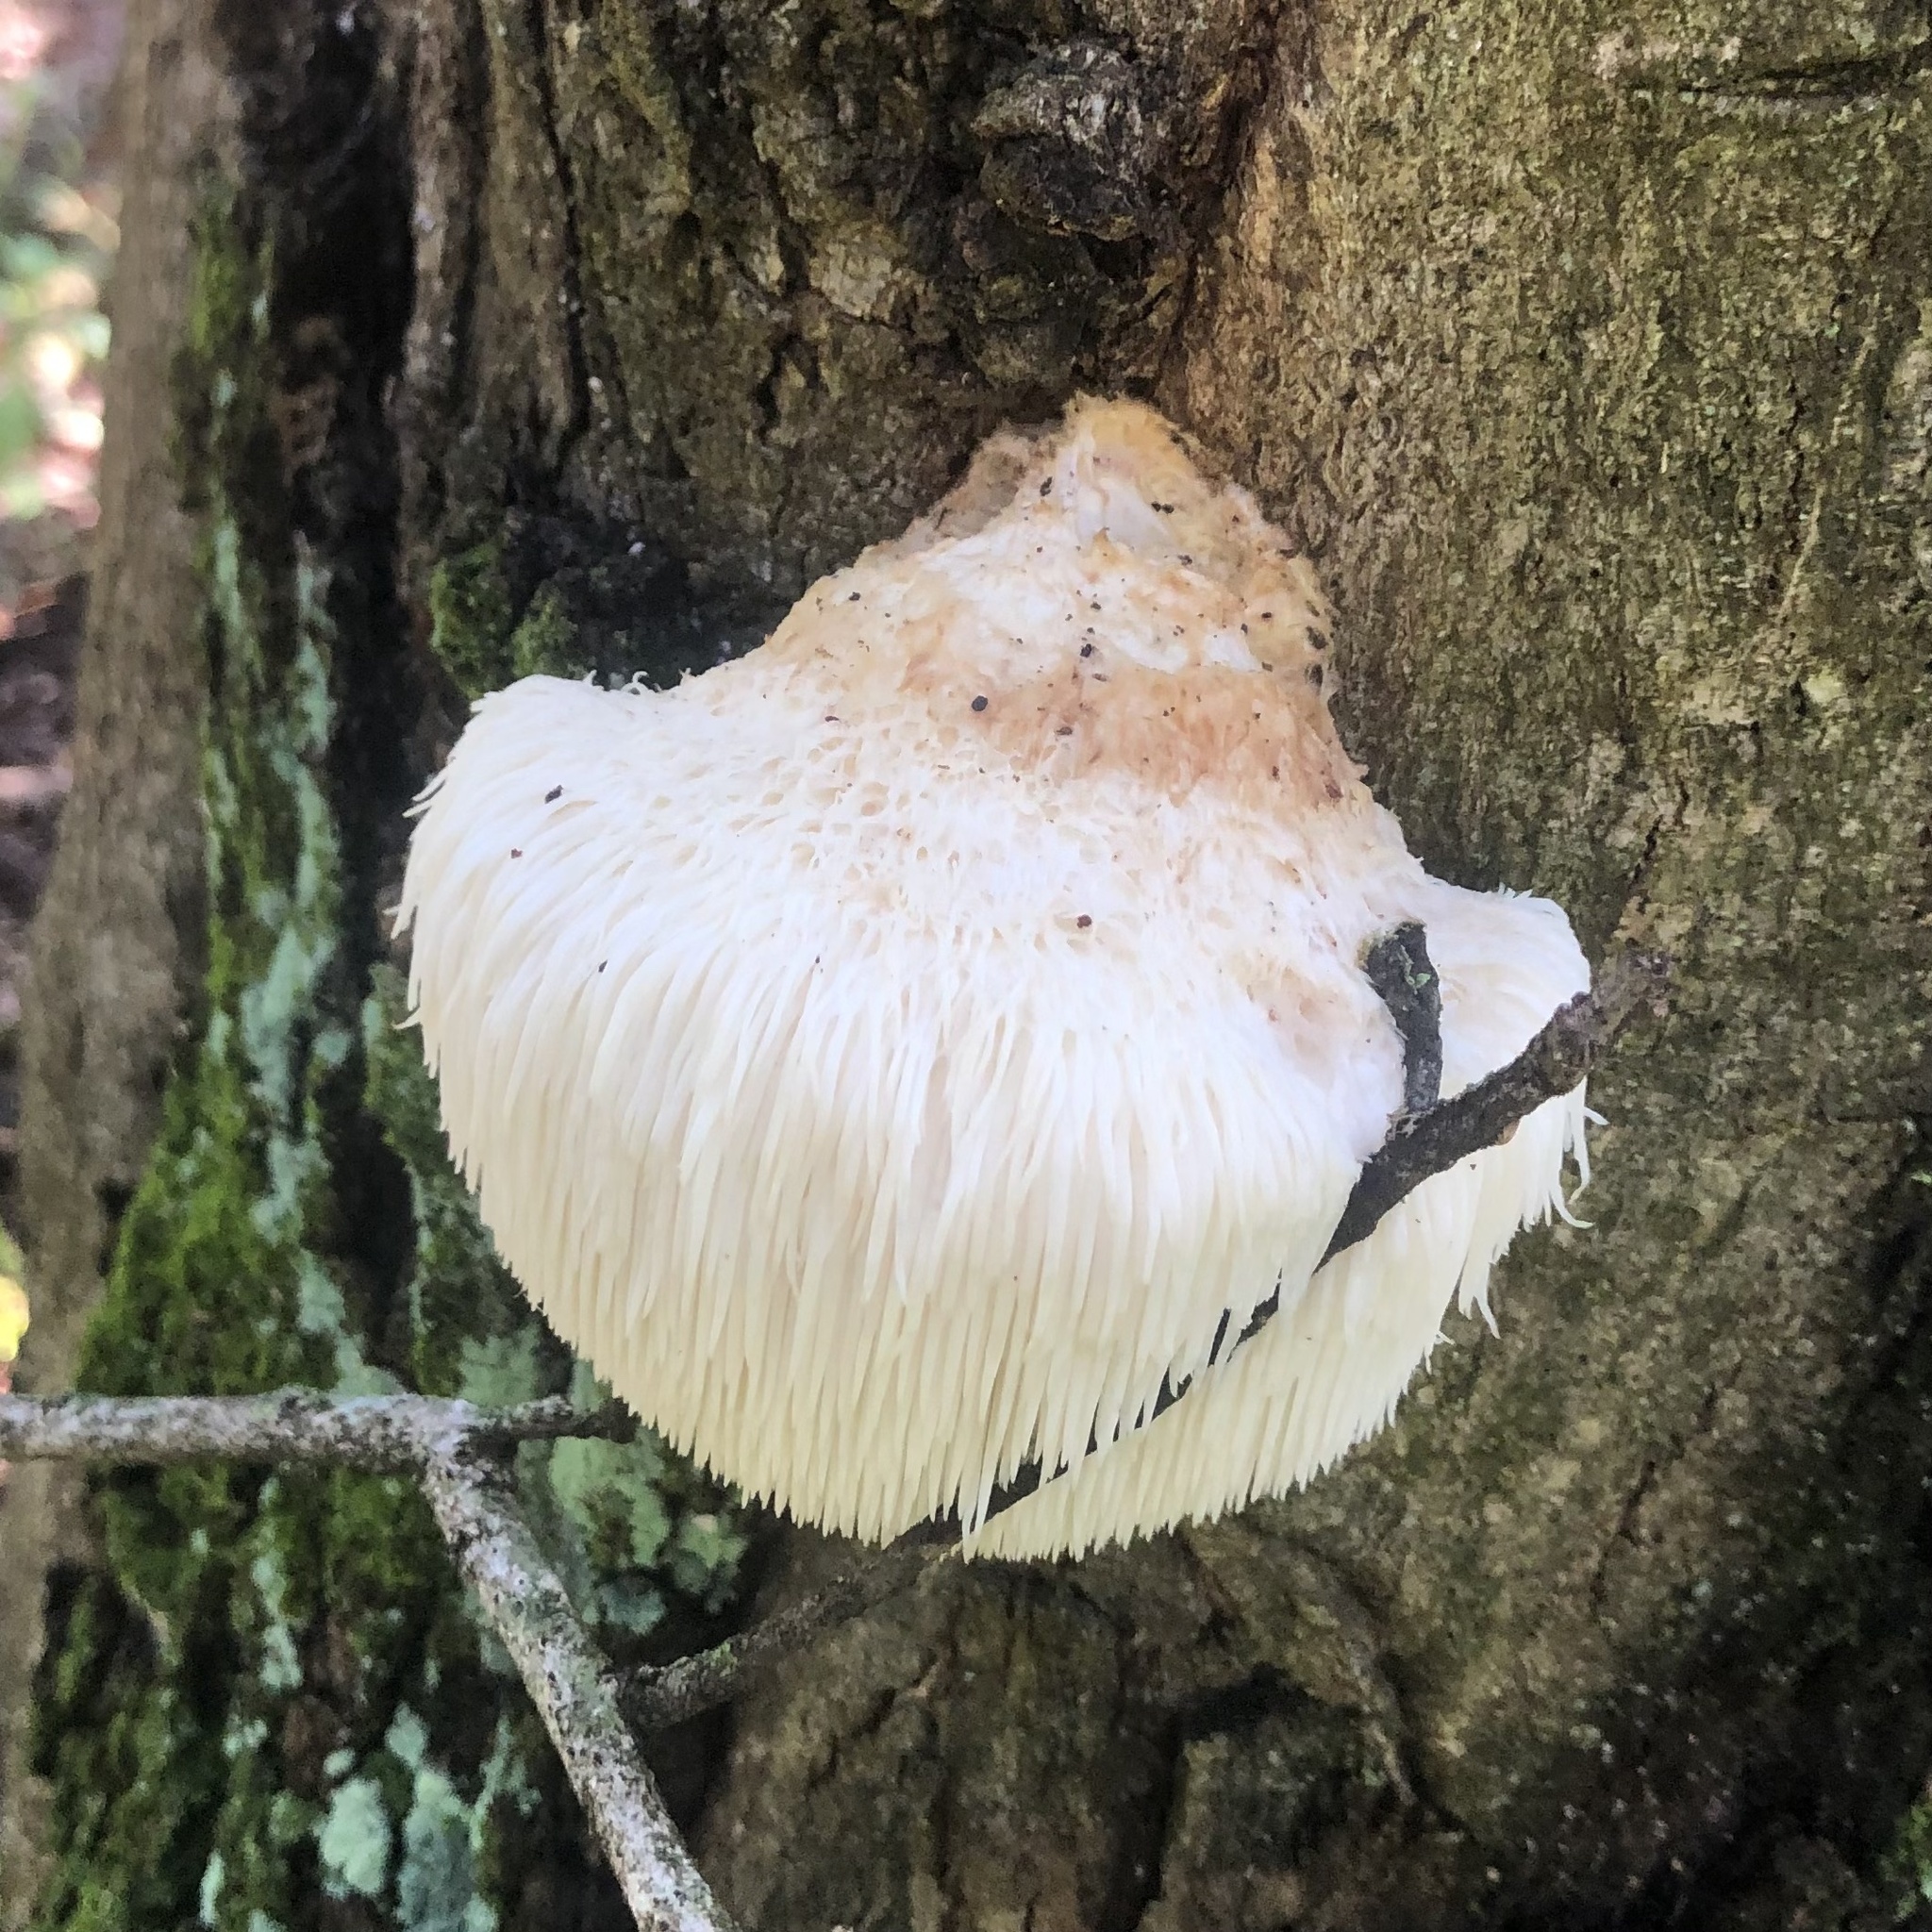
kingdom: Fungi
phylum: Basidiomycota
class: Agaricomycetes
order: Russulales
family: Hericiaceae
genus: Hericium
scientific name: Hericium erinaceus
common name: Bearded tooth
